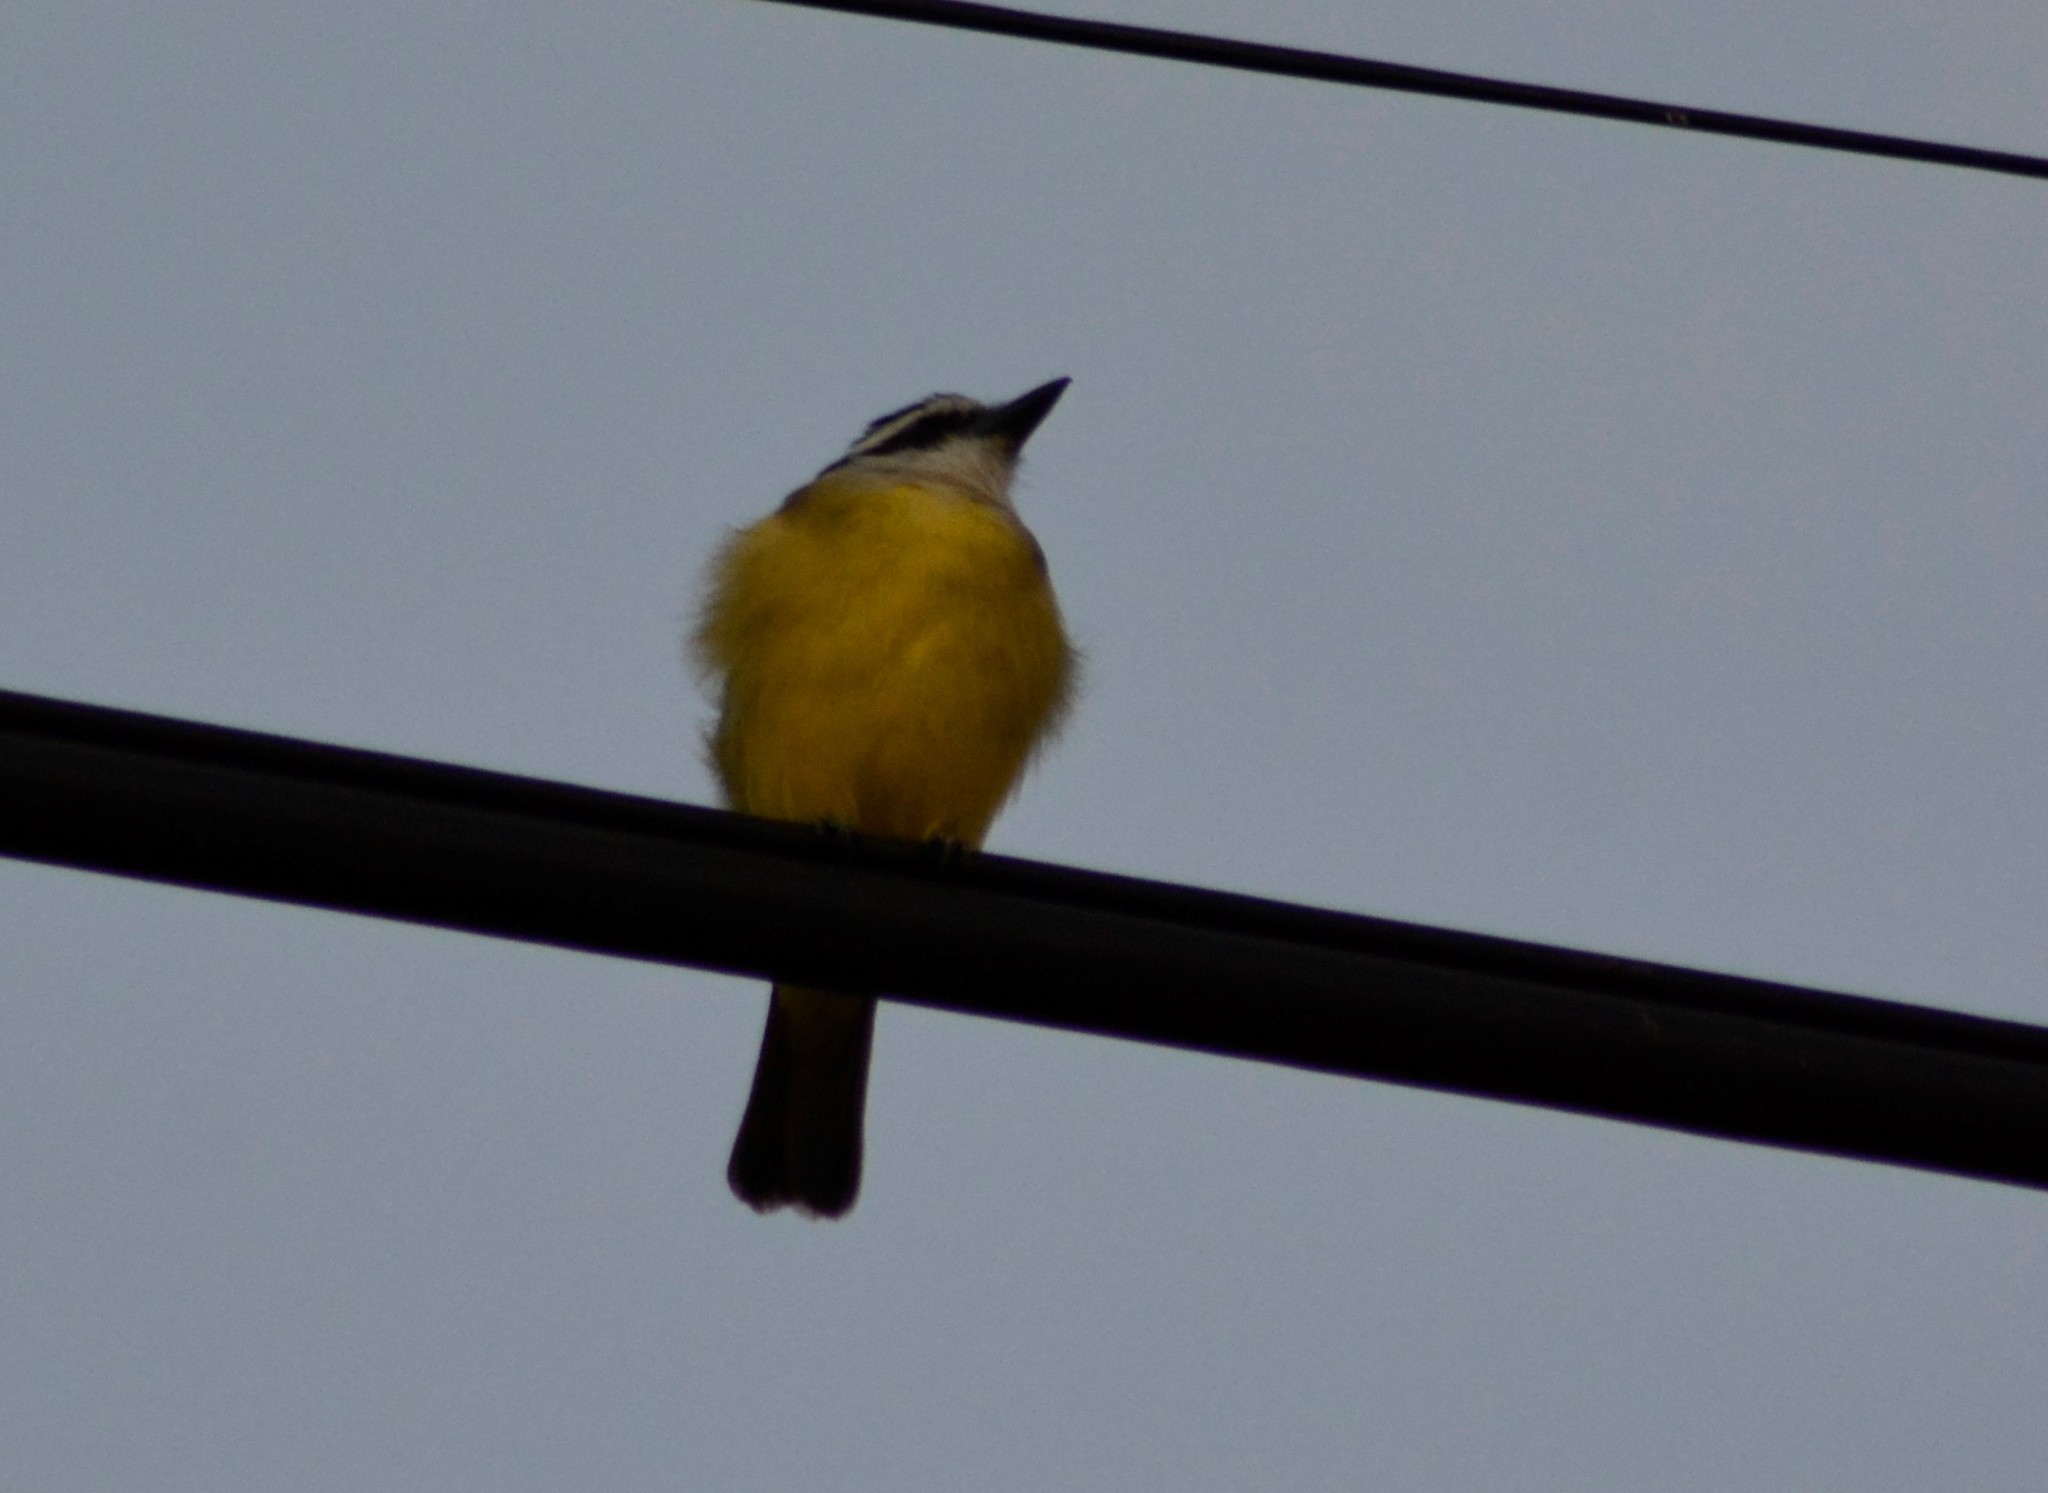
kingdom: Animalia
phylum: Chordata
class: Aves
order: Passeriformes
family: Tyrannidae
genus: Pitangus
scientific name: Pitangus sulphuratus
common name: Great kiskadee
